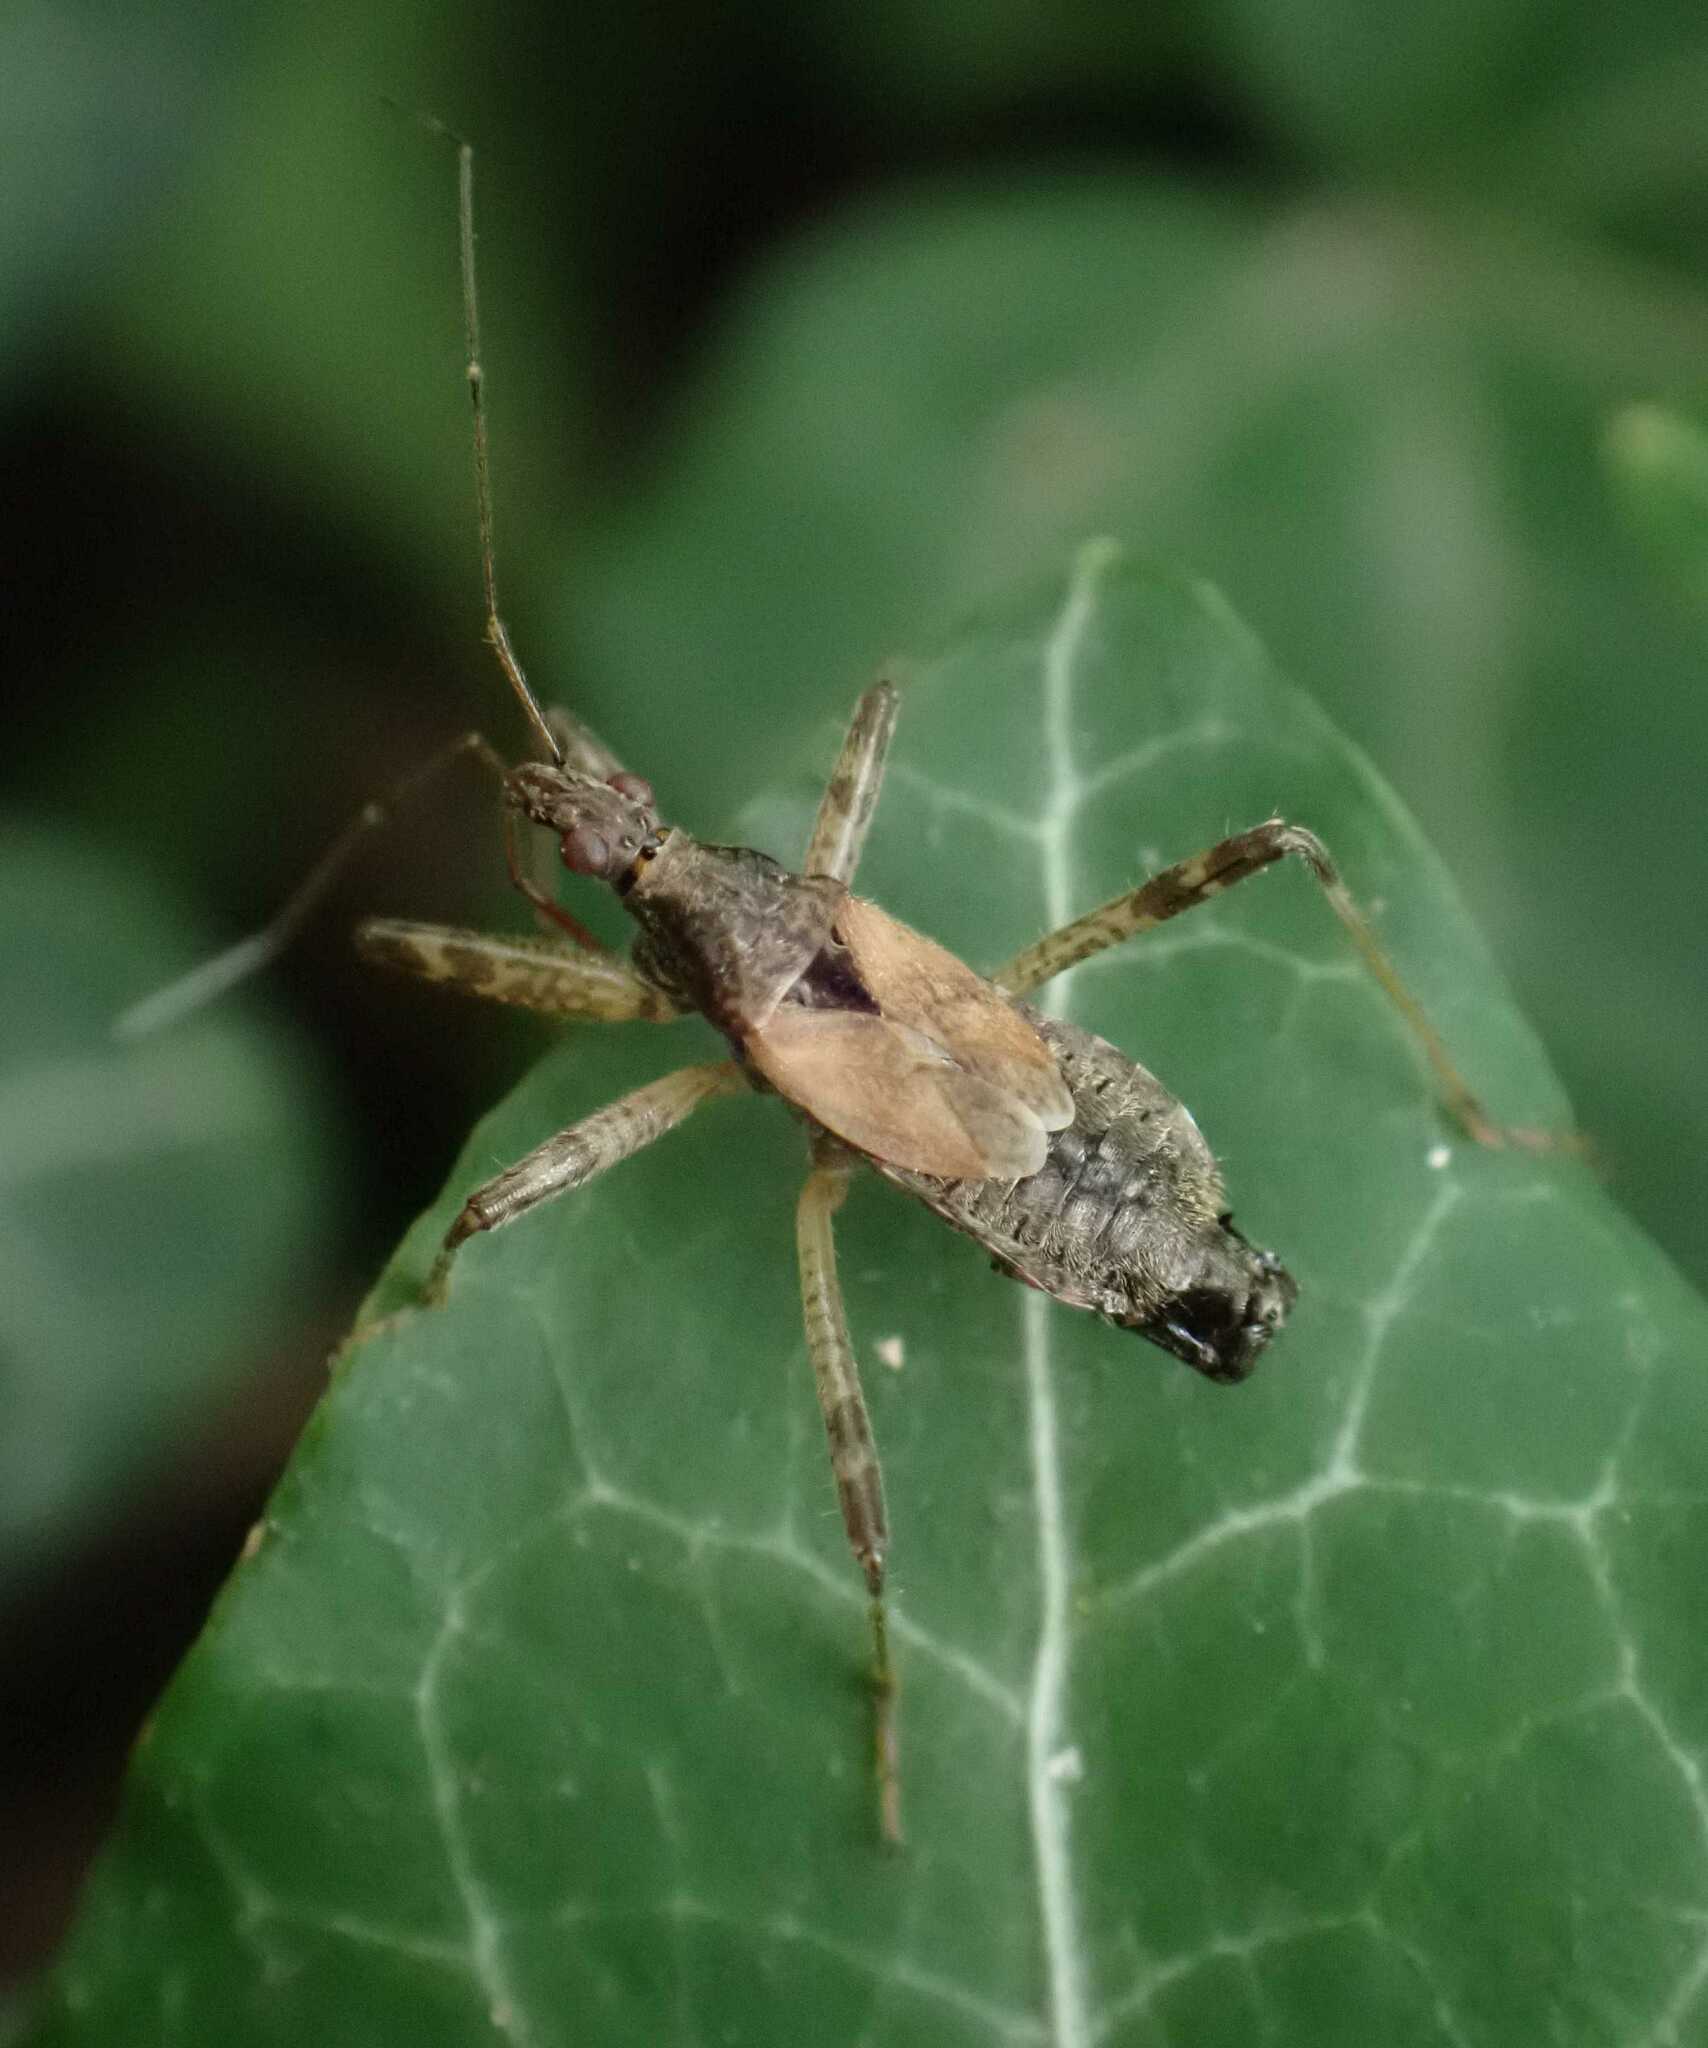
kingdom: Animalia
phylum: Arthropoda
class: Insecta
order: Hemiptera
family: Nabidae
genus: Himacerus
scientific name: Himacerus apterus
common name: Tree damsel bug
